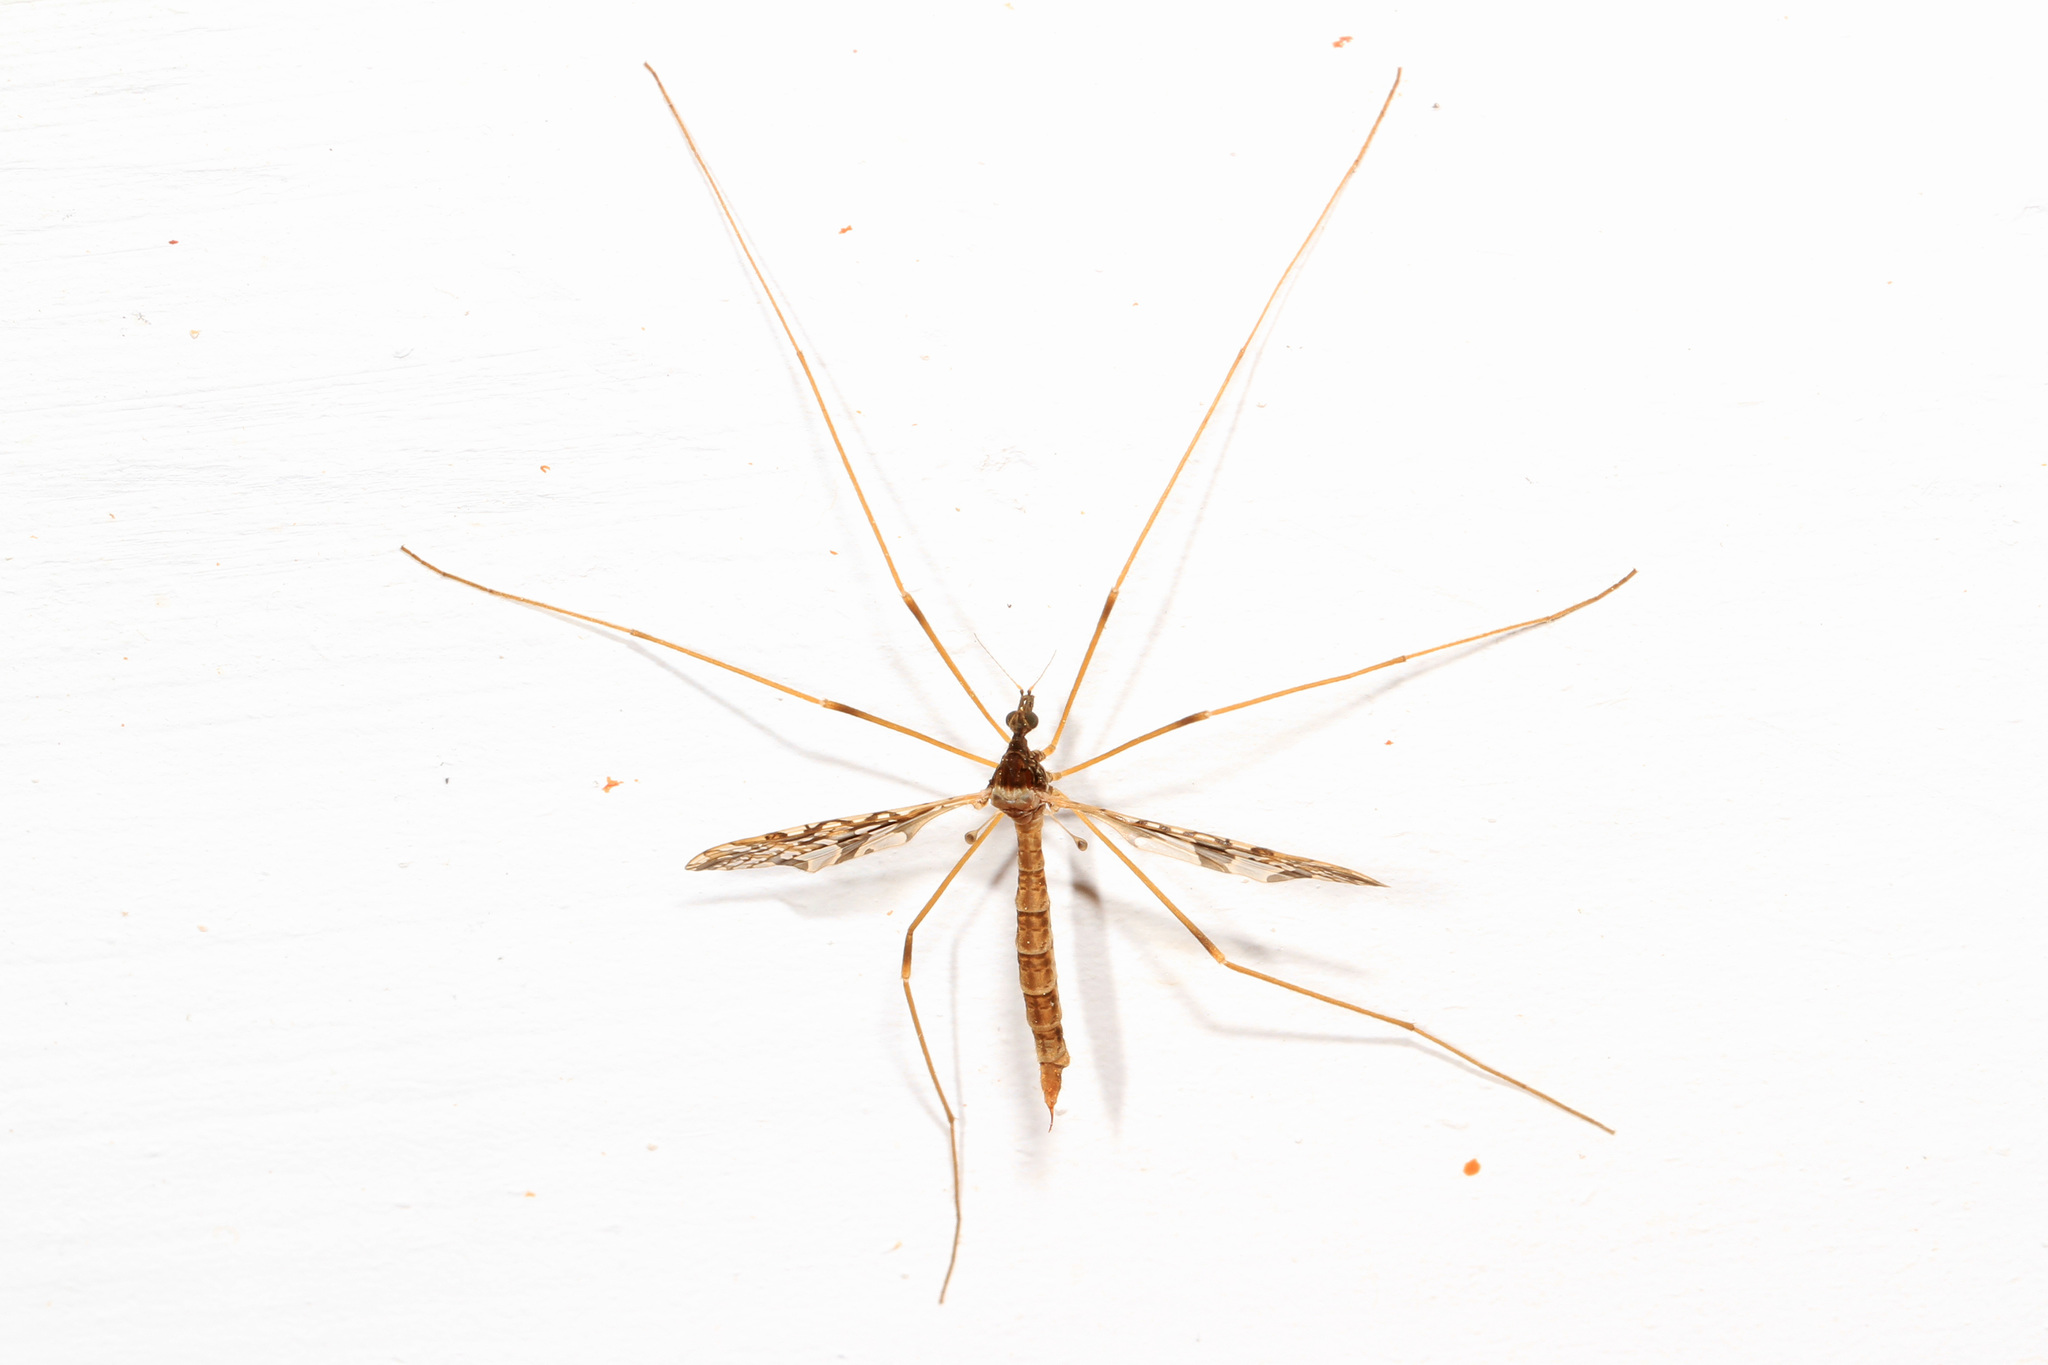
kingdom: Animalia
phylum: Arthropoda
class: Insecta
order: Diptera
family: Limoniidae
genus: Epiphragma
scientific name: Epiphragma solatrix
